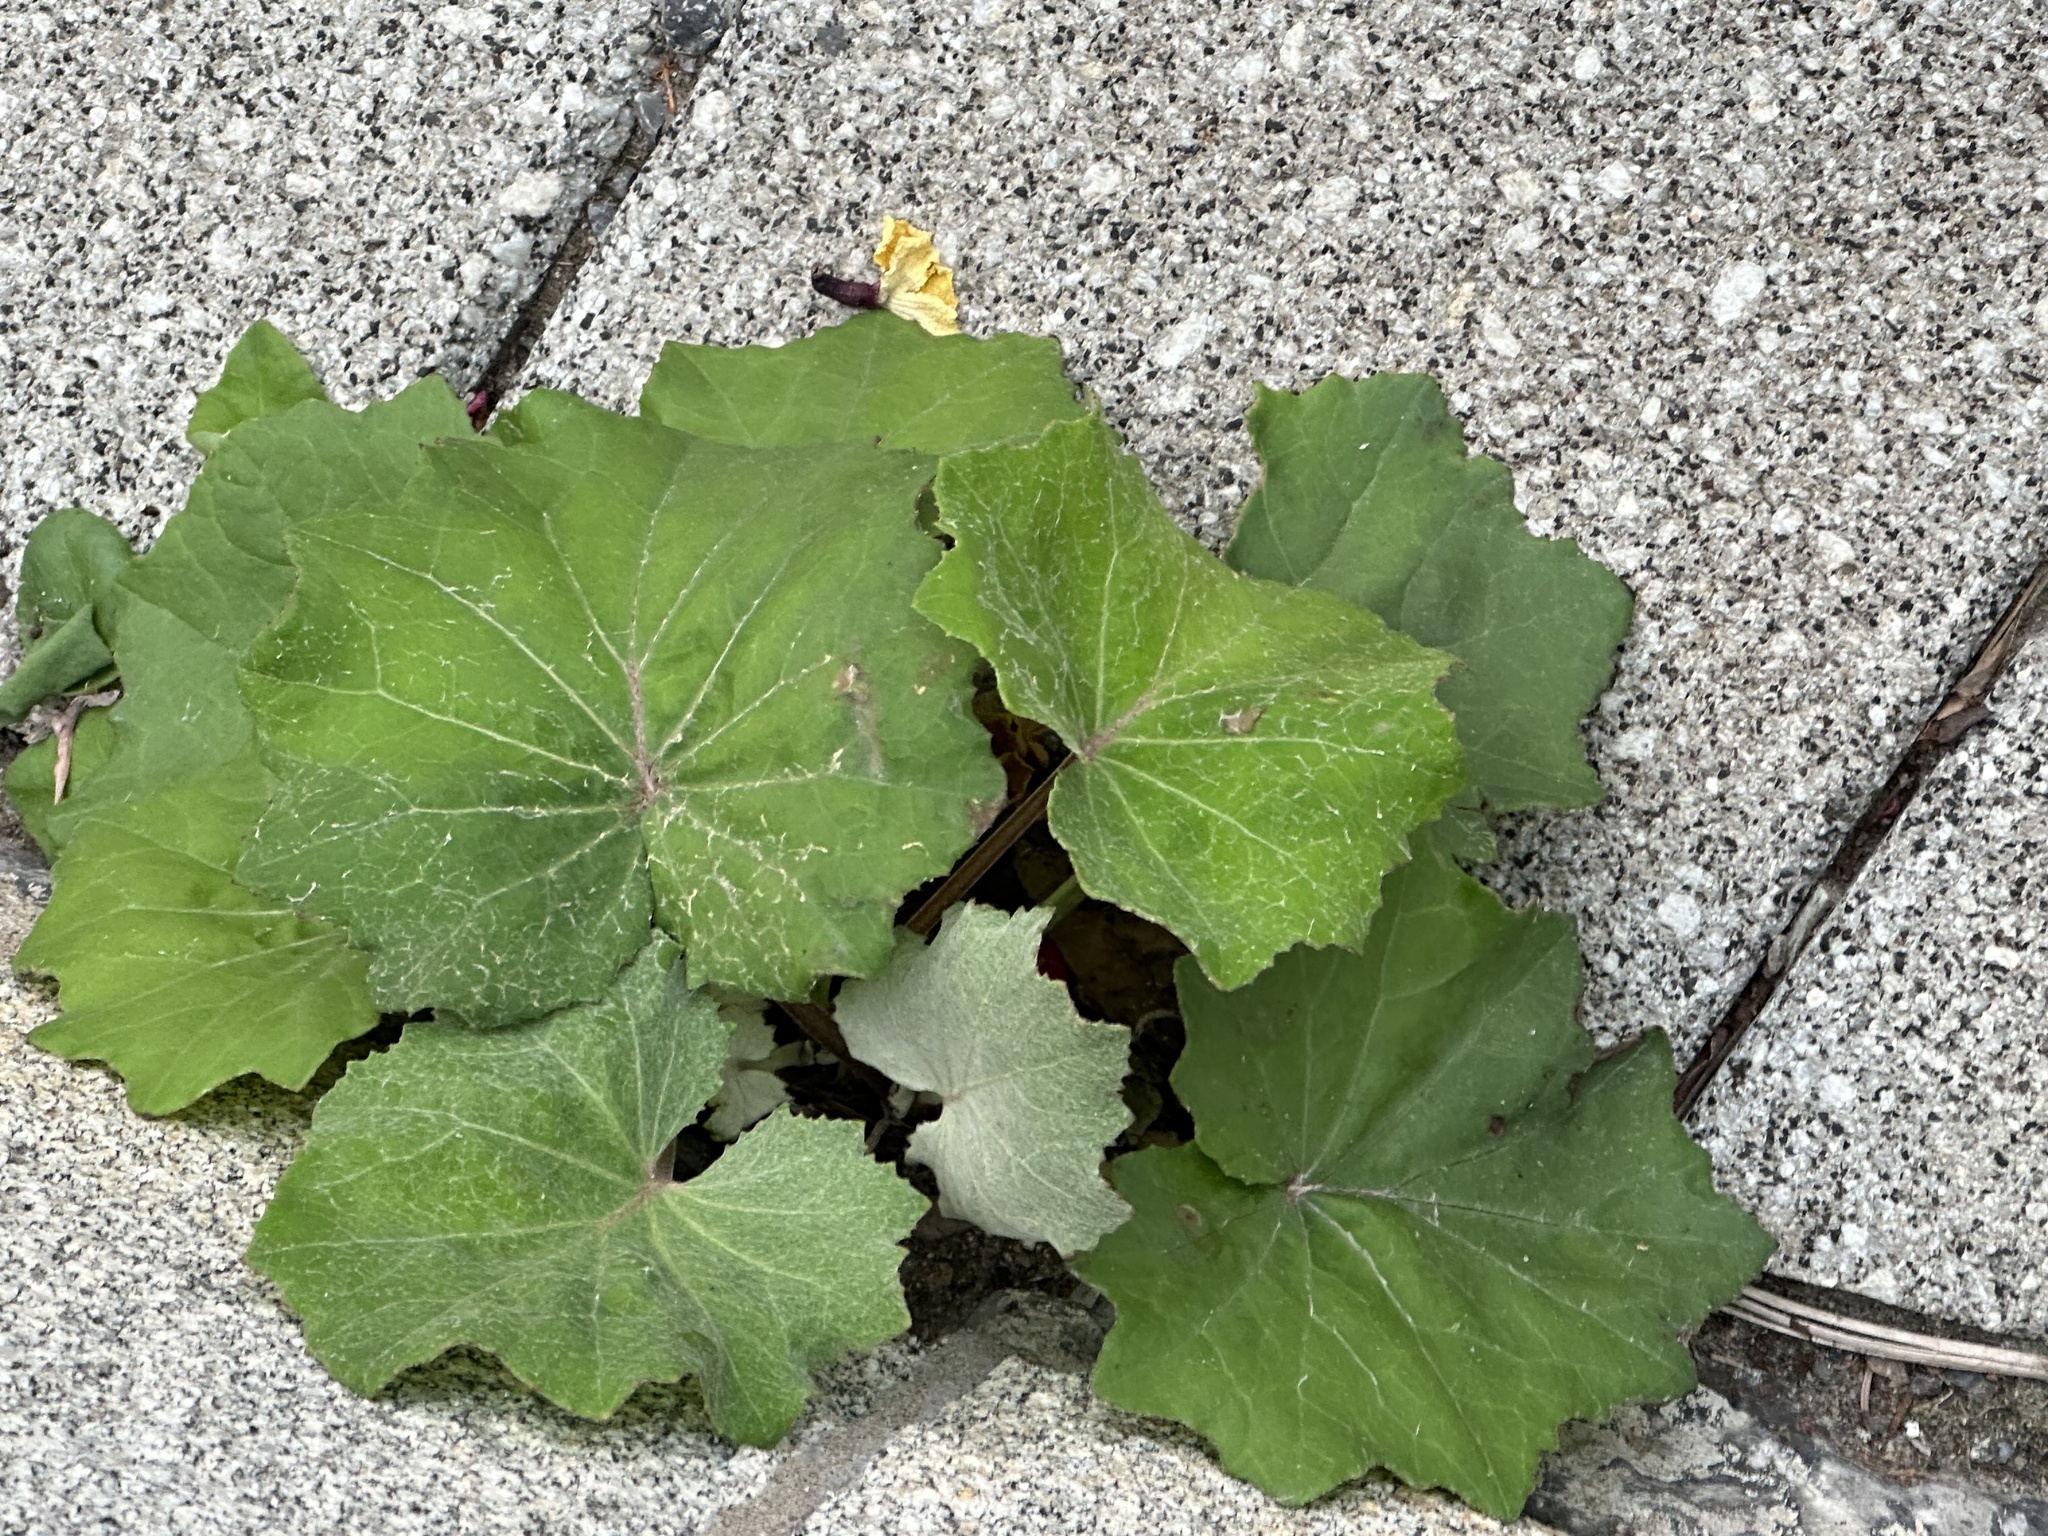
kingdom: Plantae
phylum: Tracheophyta
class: Magnoliopsida
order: Asterales
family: Asteraceae
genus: Tussilago
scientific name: Tussilago farfara
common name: Coltsfoot
